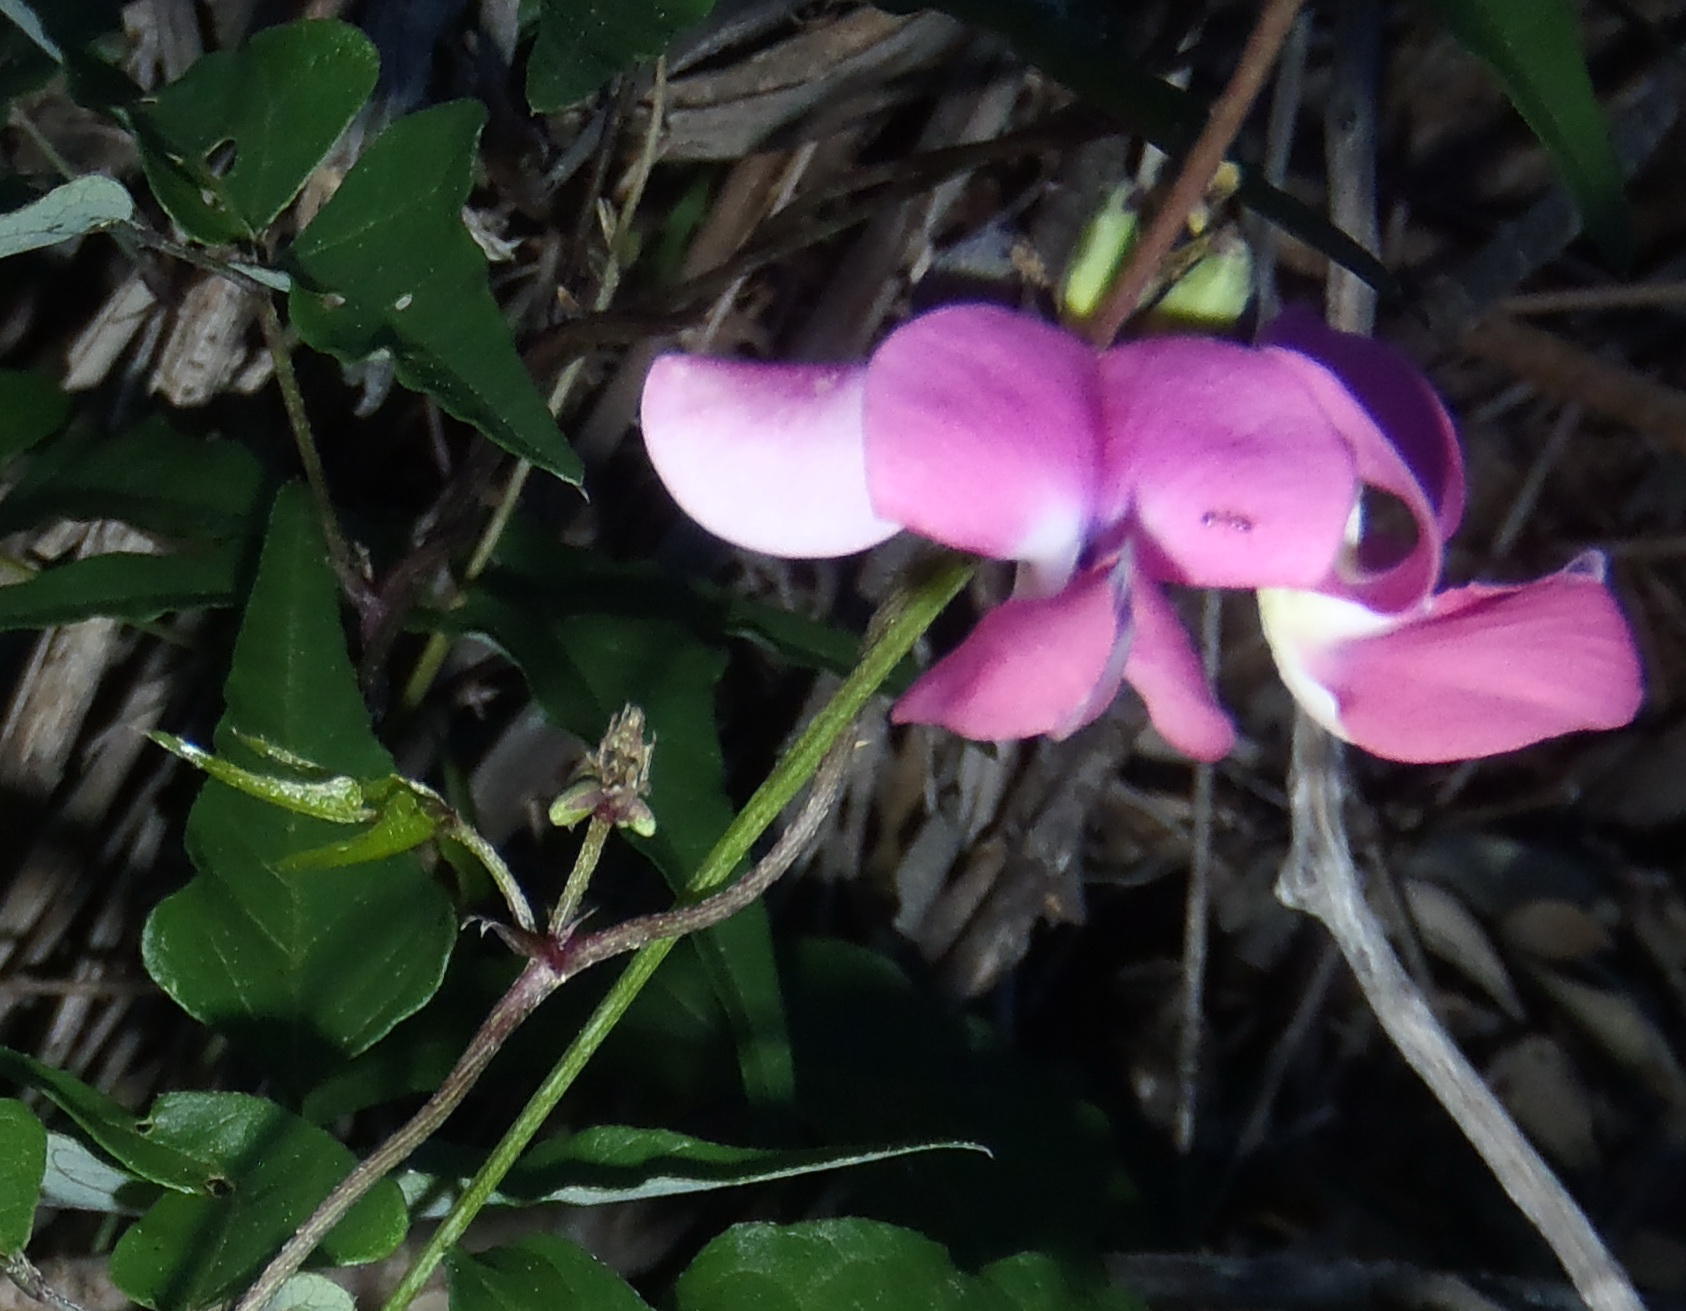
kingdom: Plantae
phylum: Tracheophyta
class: Magnoliopsida
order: Fabales
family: Fabaceae
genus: Dipogon
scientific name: Dipogon lignosus
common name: Okie bean
